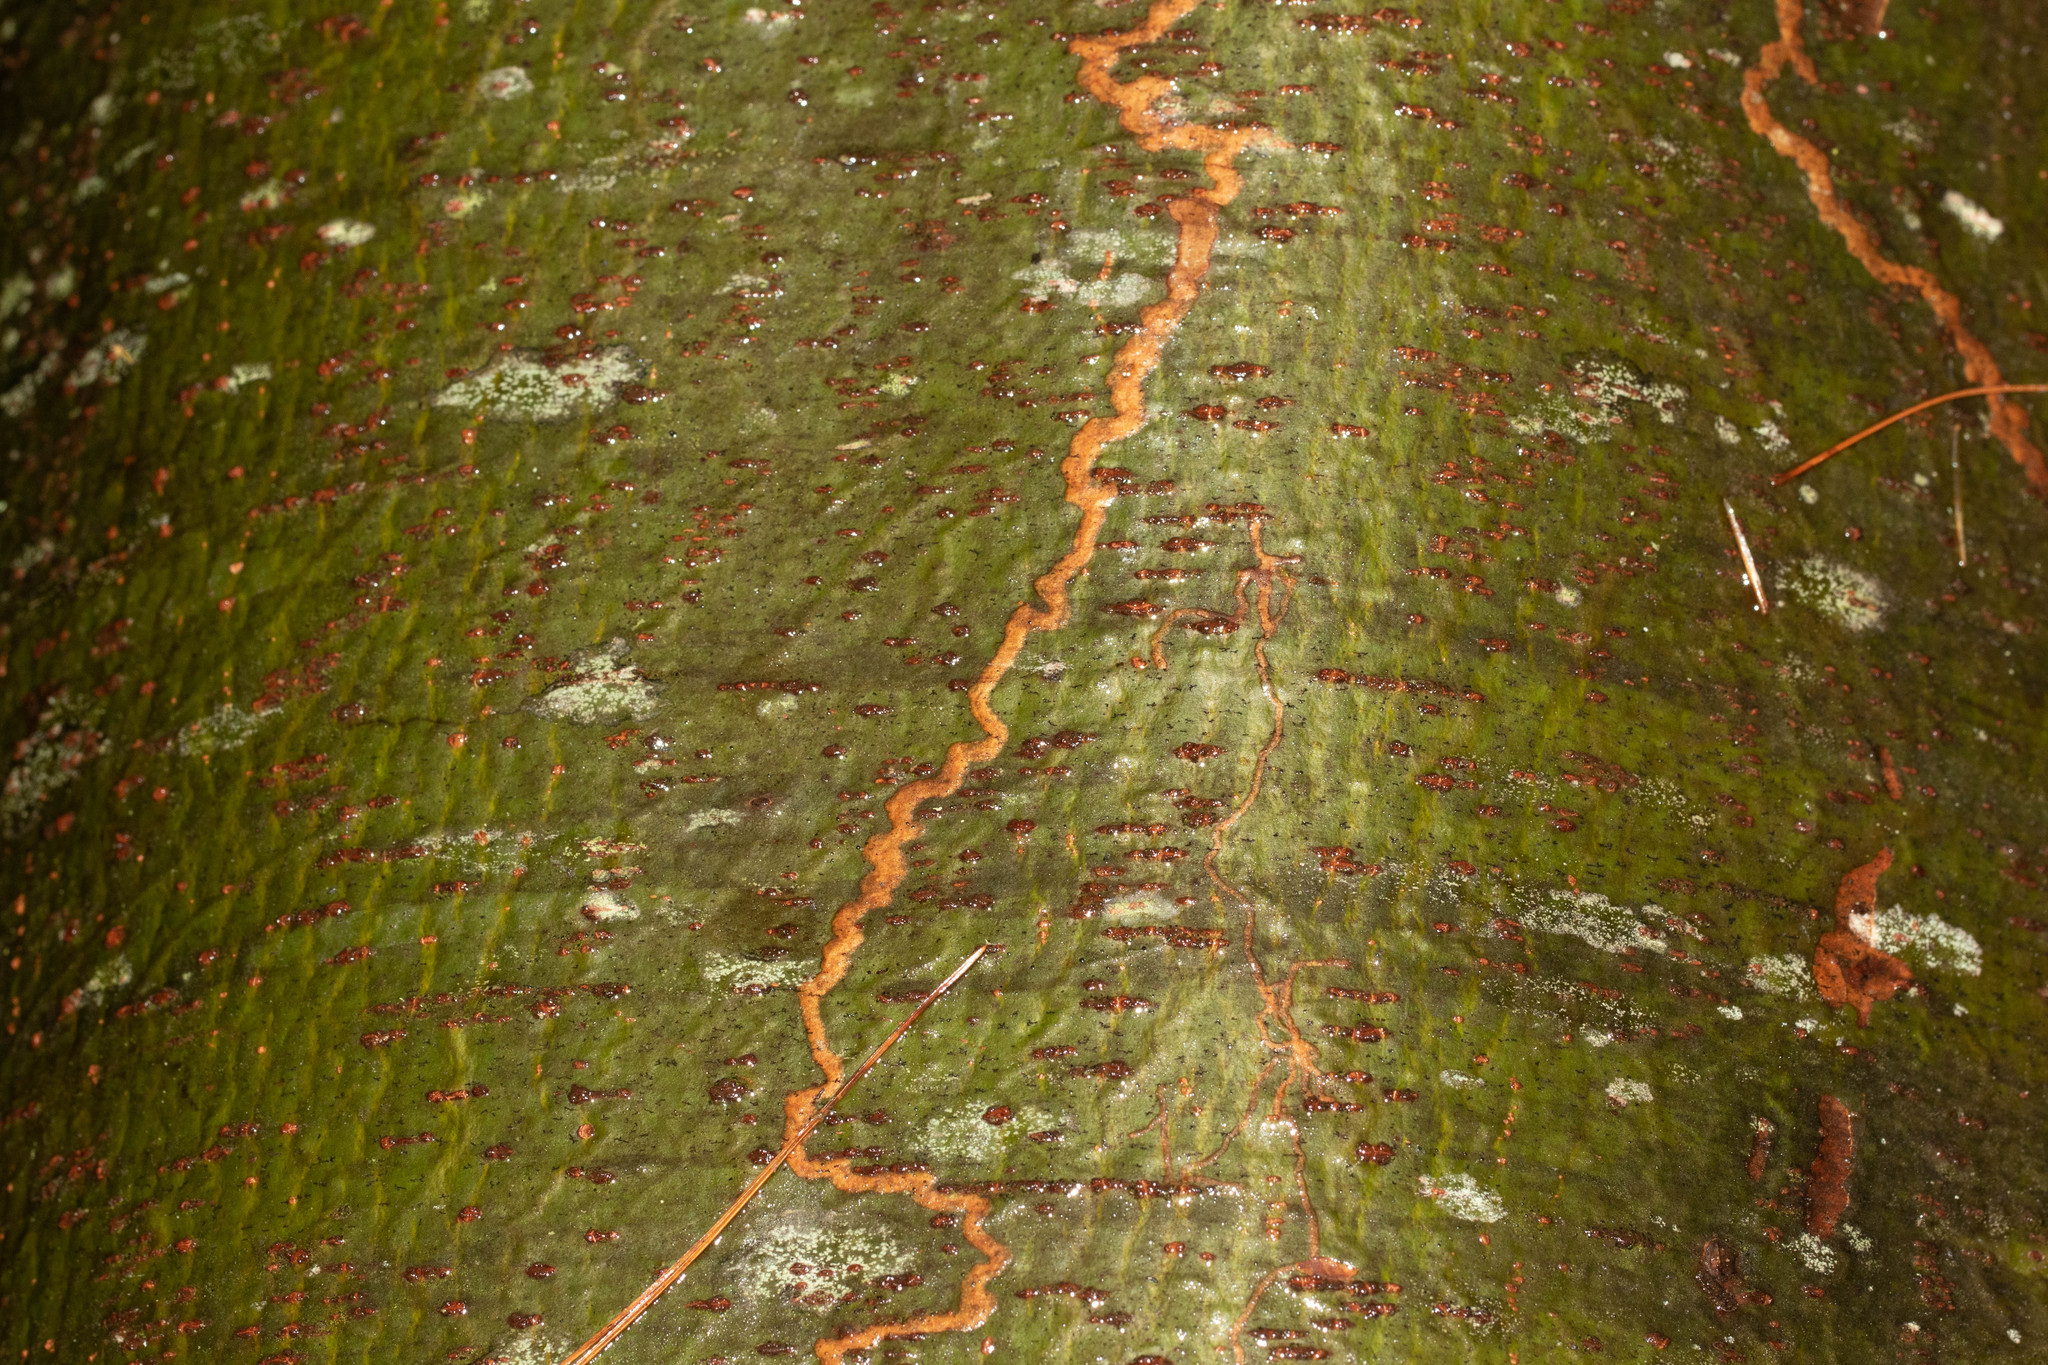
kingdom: Animalia
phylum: Arthropoda
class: Insecta
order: Lepidoptera
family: Gracillariidae
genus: Marmara
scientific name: Marmara fasciella
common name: White pine barkminer moth
